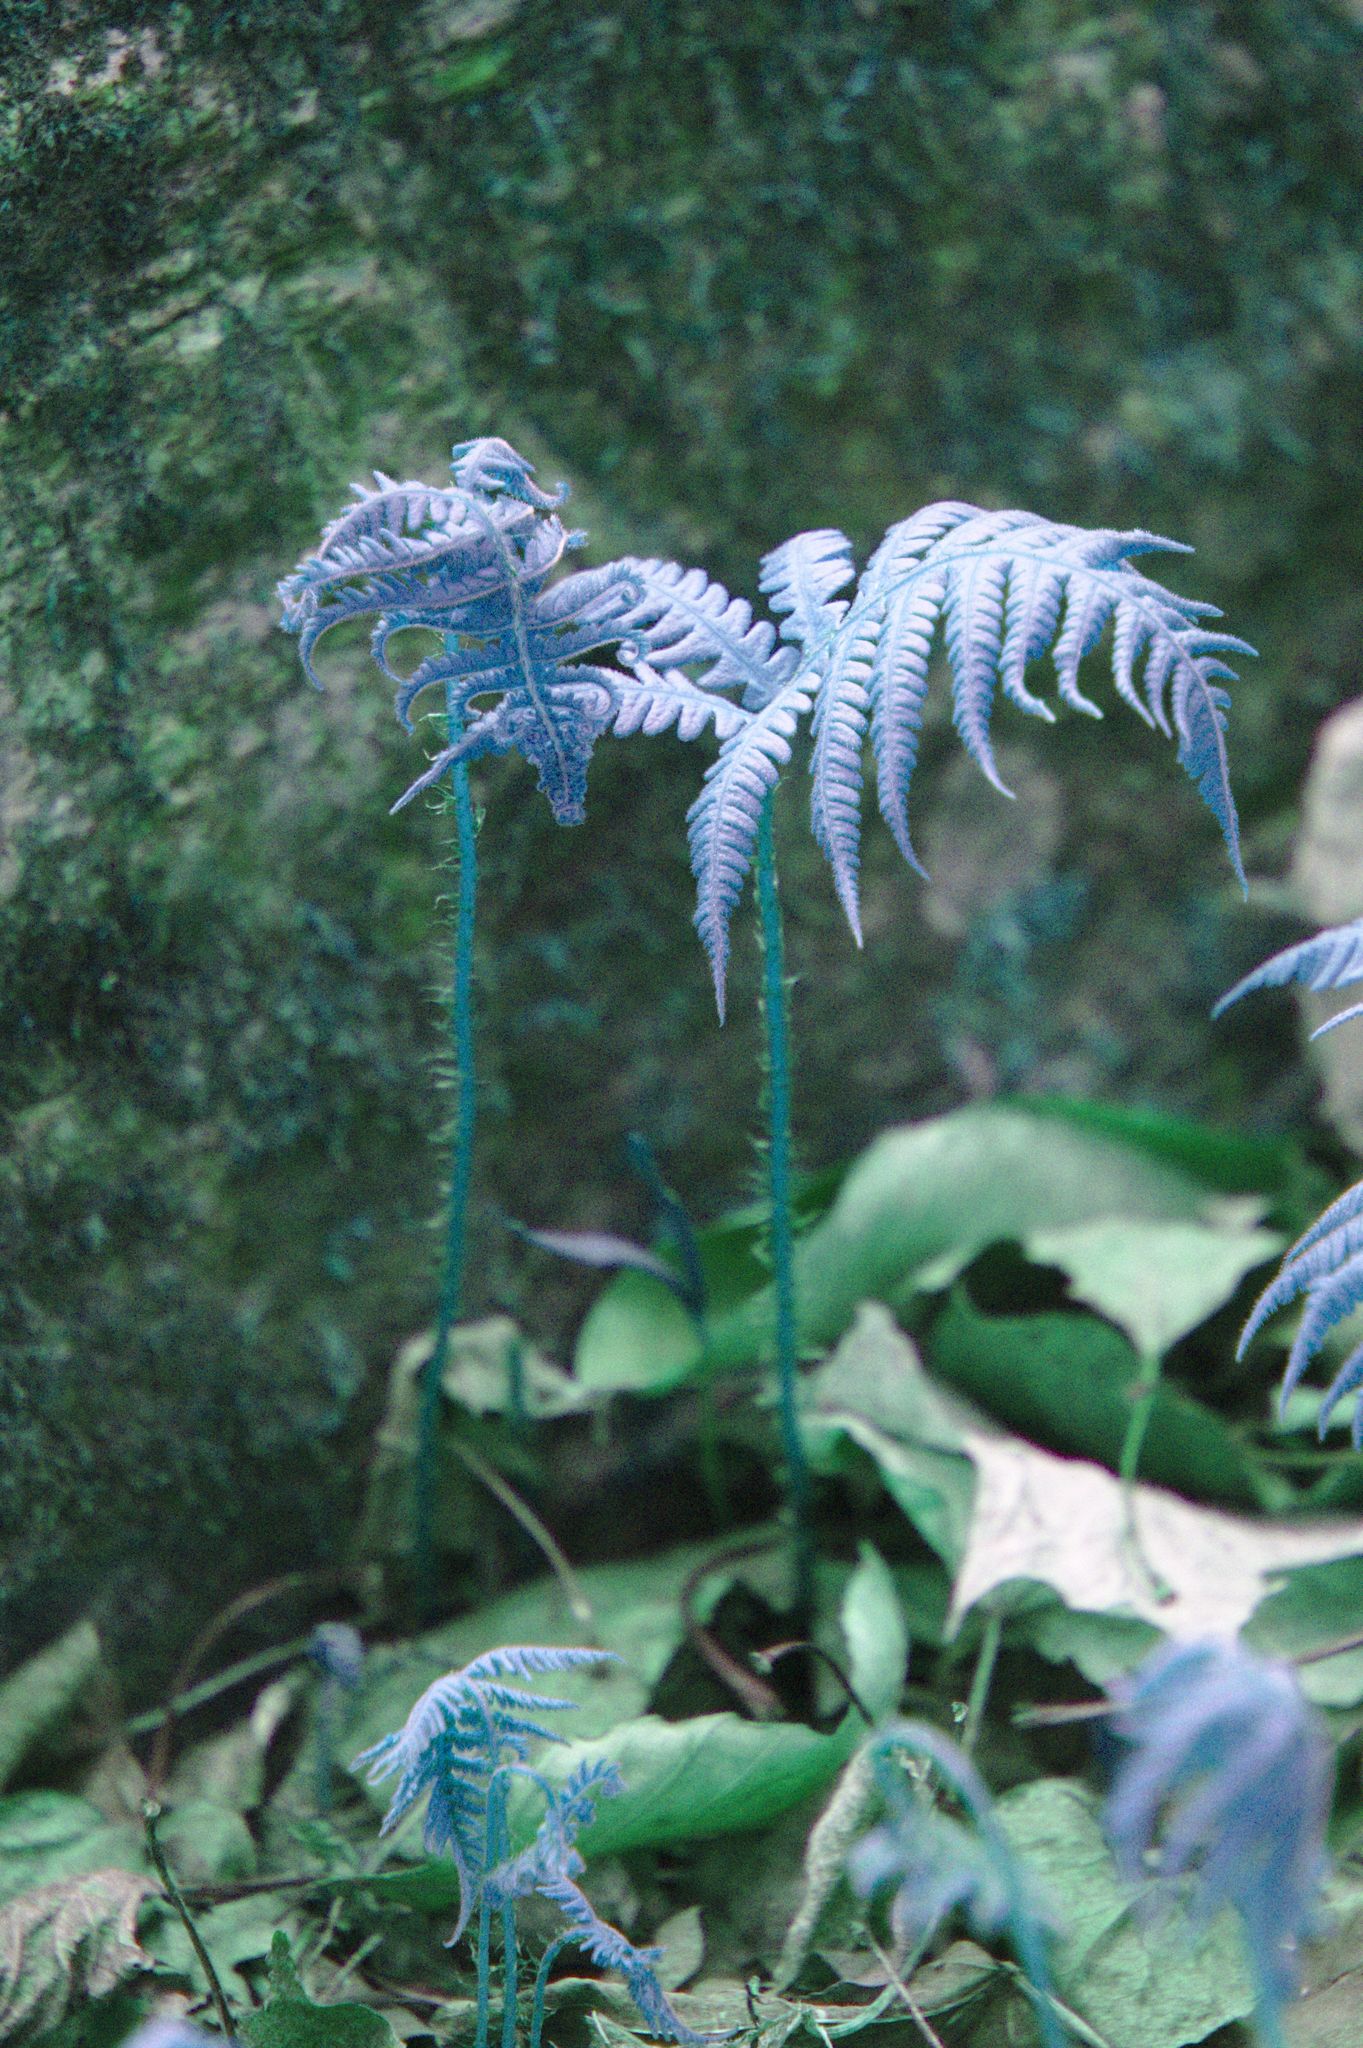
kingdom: Plantae
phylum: Tracheophyta
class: Polypodiopsida
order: Polypodiales
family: Thelypteridaceae
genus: Phegopteris
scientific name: Phegopteris connectilis
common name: Beech fern
